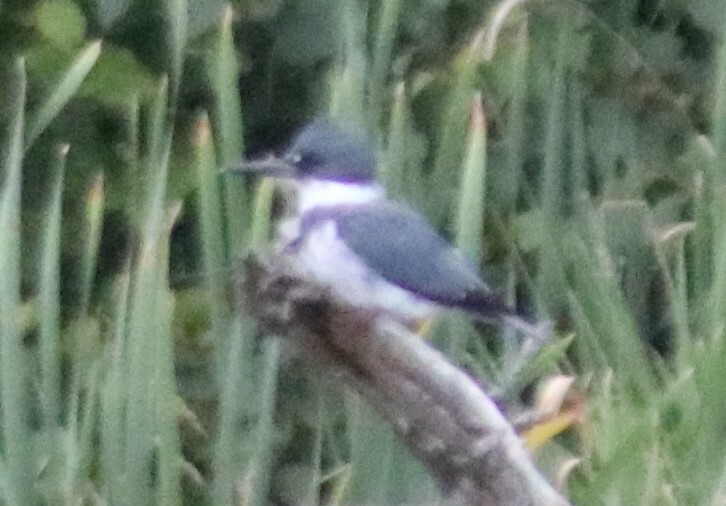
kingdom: Animalia
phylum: Chordata
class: Aves
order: Coraciiformes
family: Alcedinidae
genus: Megaceryle
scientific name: Megaceryle alcyon
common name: Belted kingfisher
